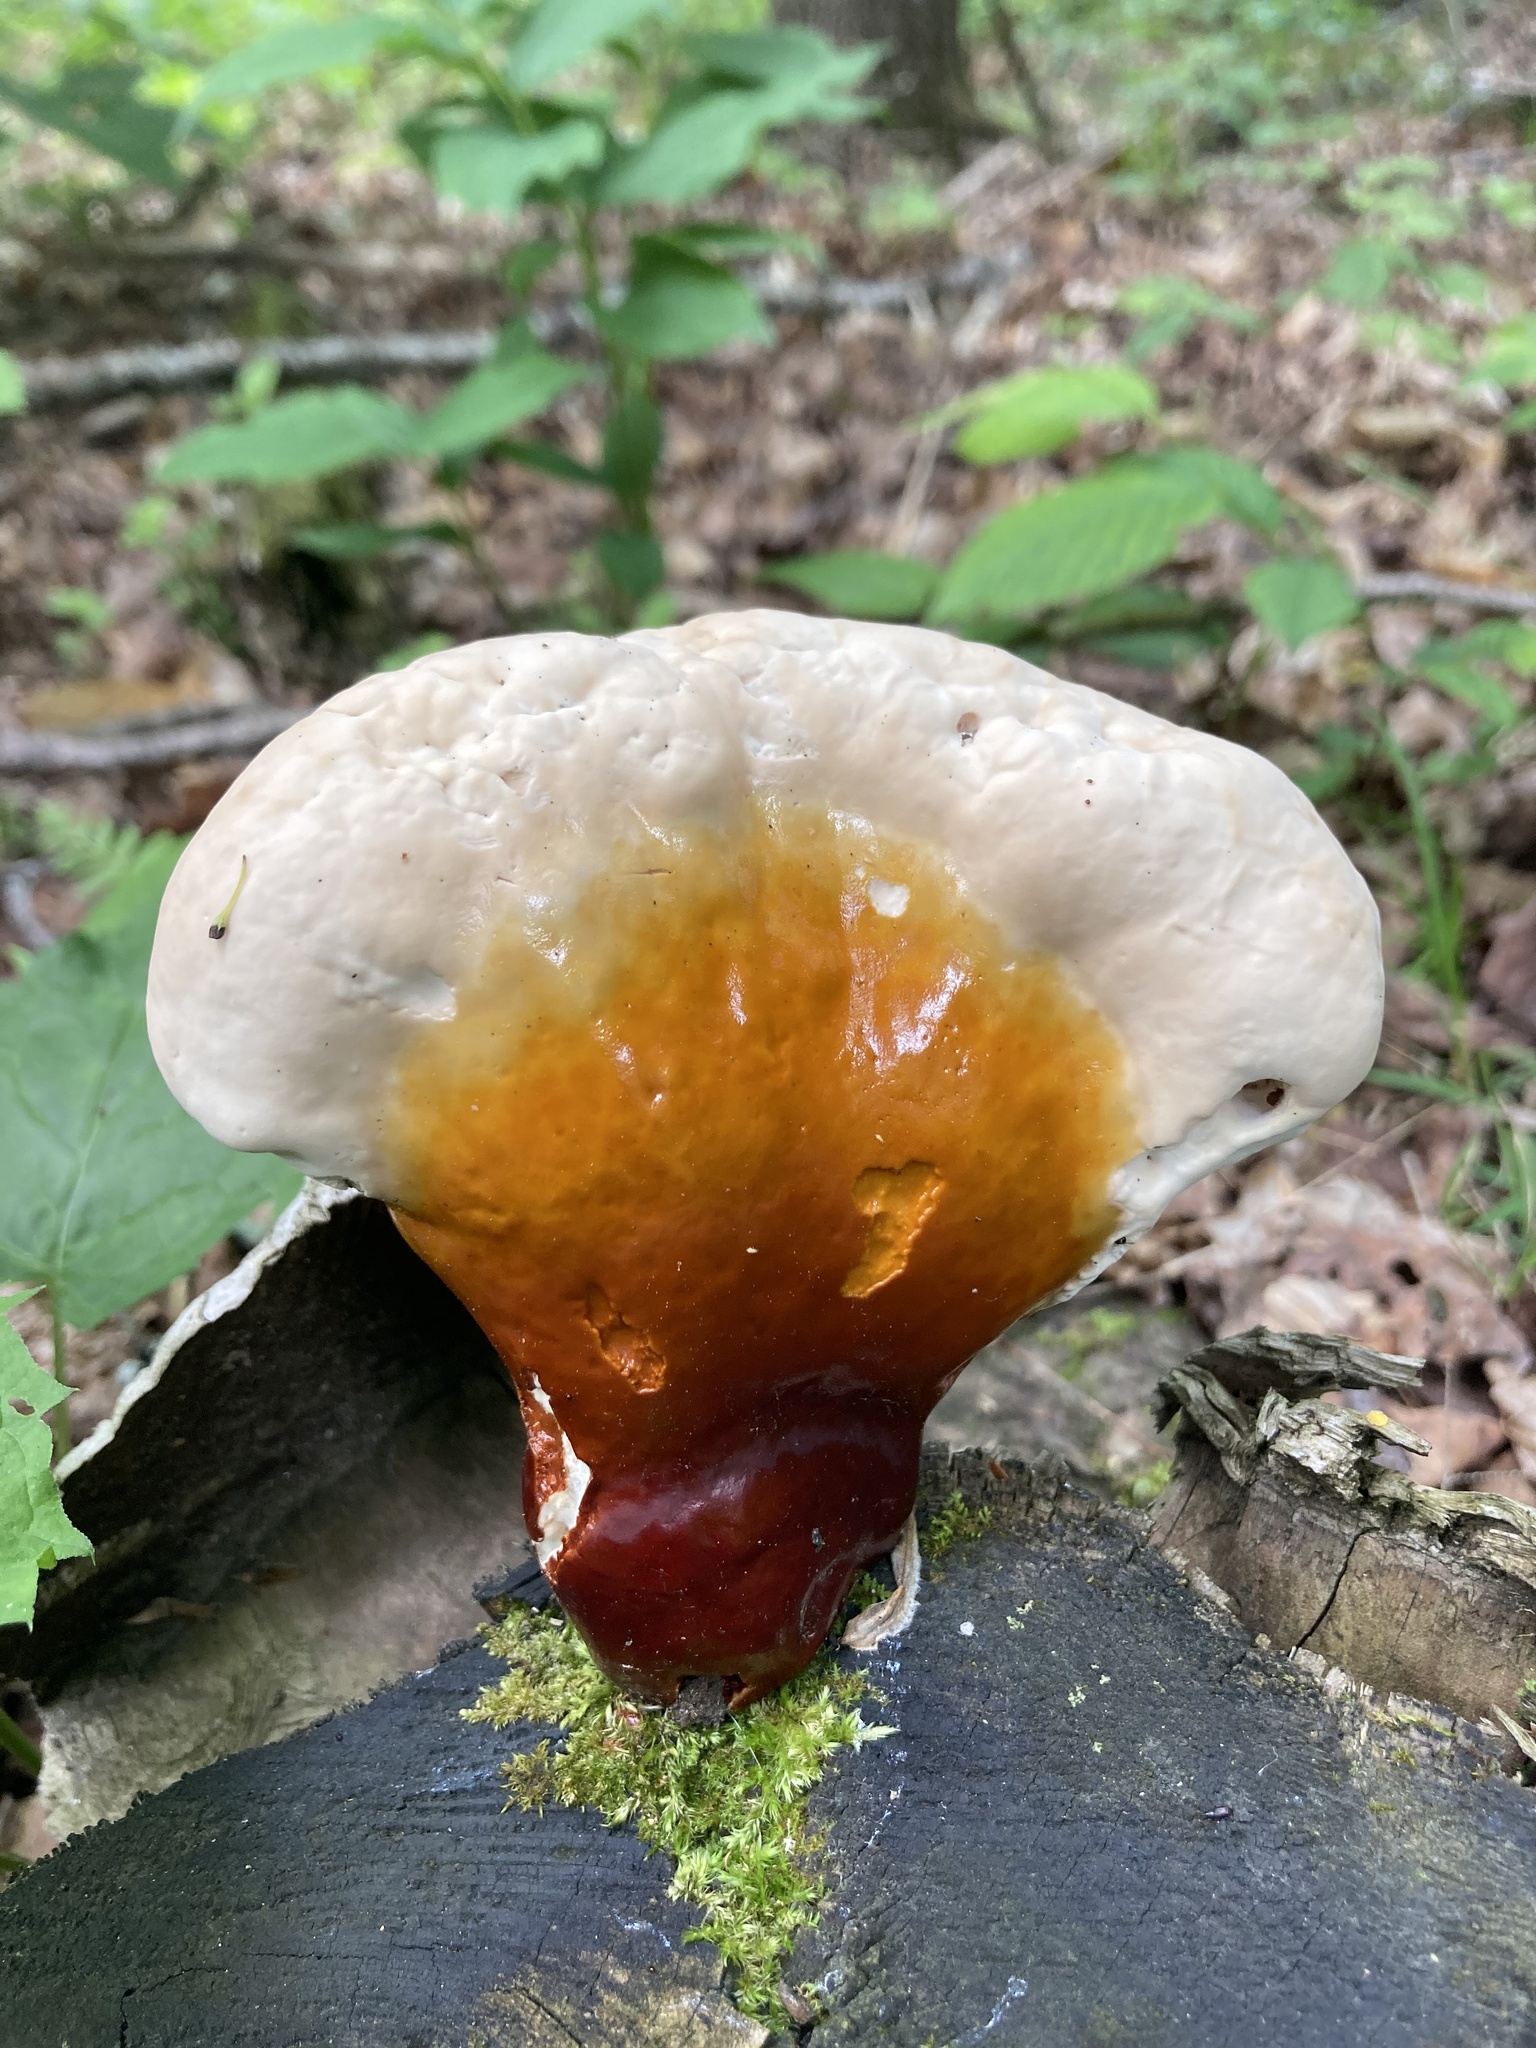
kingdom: Fungi
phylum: Basidiomycota
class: Agaricomycetes
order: Polyporales
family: Polyporaceae
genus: Ganoderma
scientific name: Ganoderma tsugae
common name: Hemlock varnish shelf
